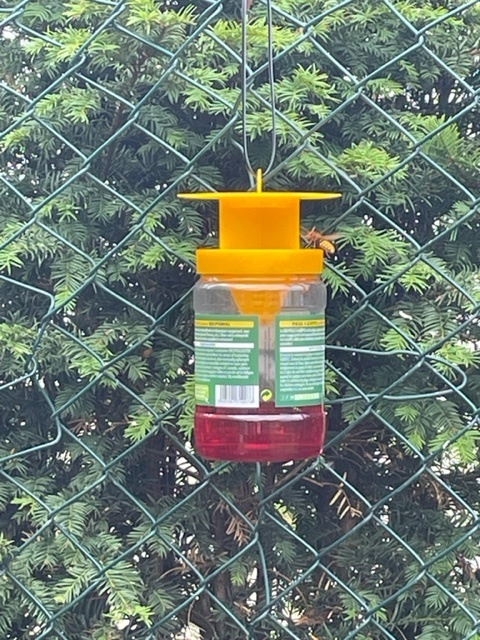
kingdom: Animalia
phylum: Arthropoda
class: Insecta
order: Hymenoptera
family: Vespidae
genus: Vespa
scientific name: Vespa crabro
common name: Hornet
